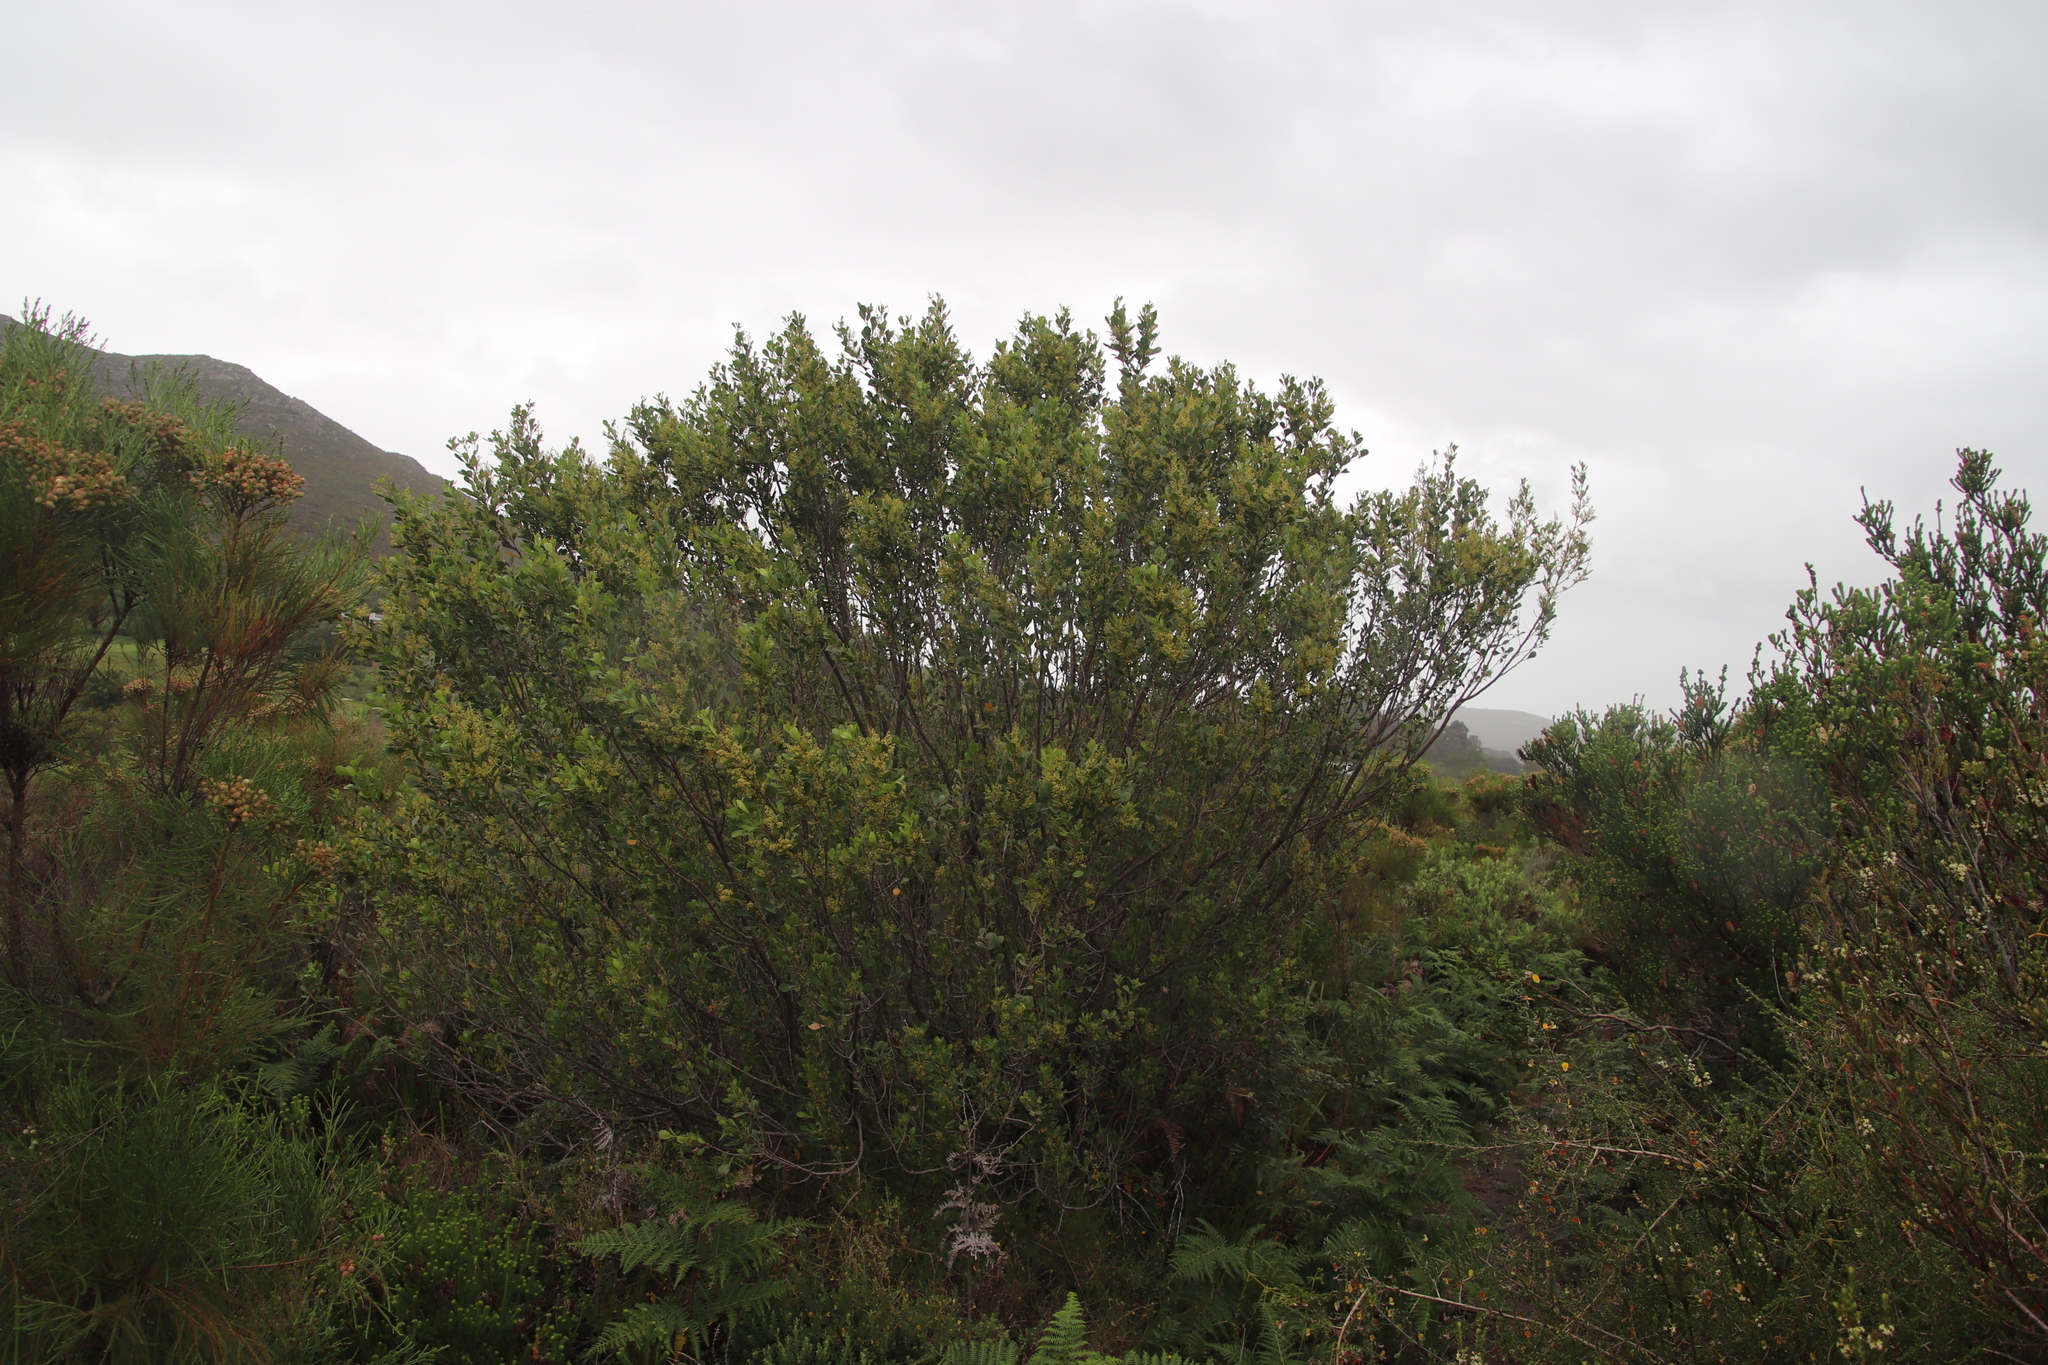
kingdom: Plantae
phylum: Tracheophyta
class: Magnoliopsida
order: Sapindales
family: Anacardiaceae
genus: Searsia
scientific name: Searsia lucida
